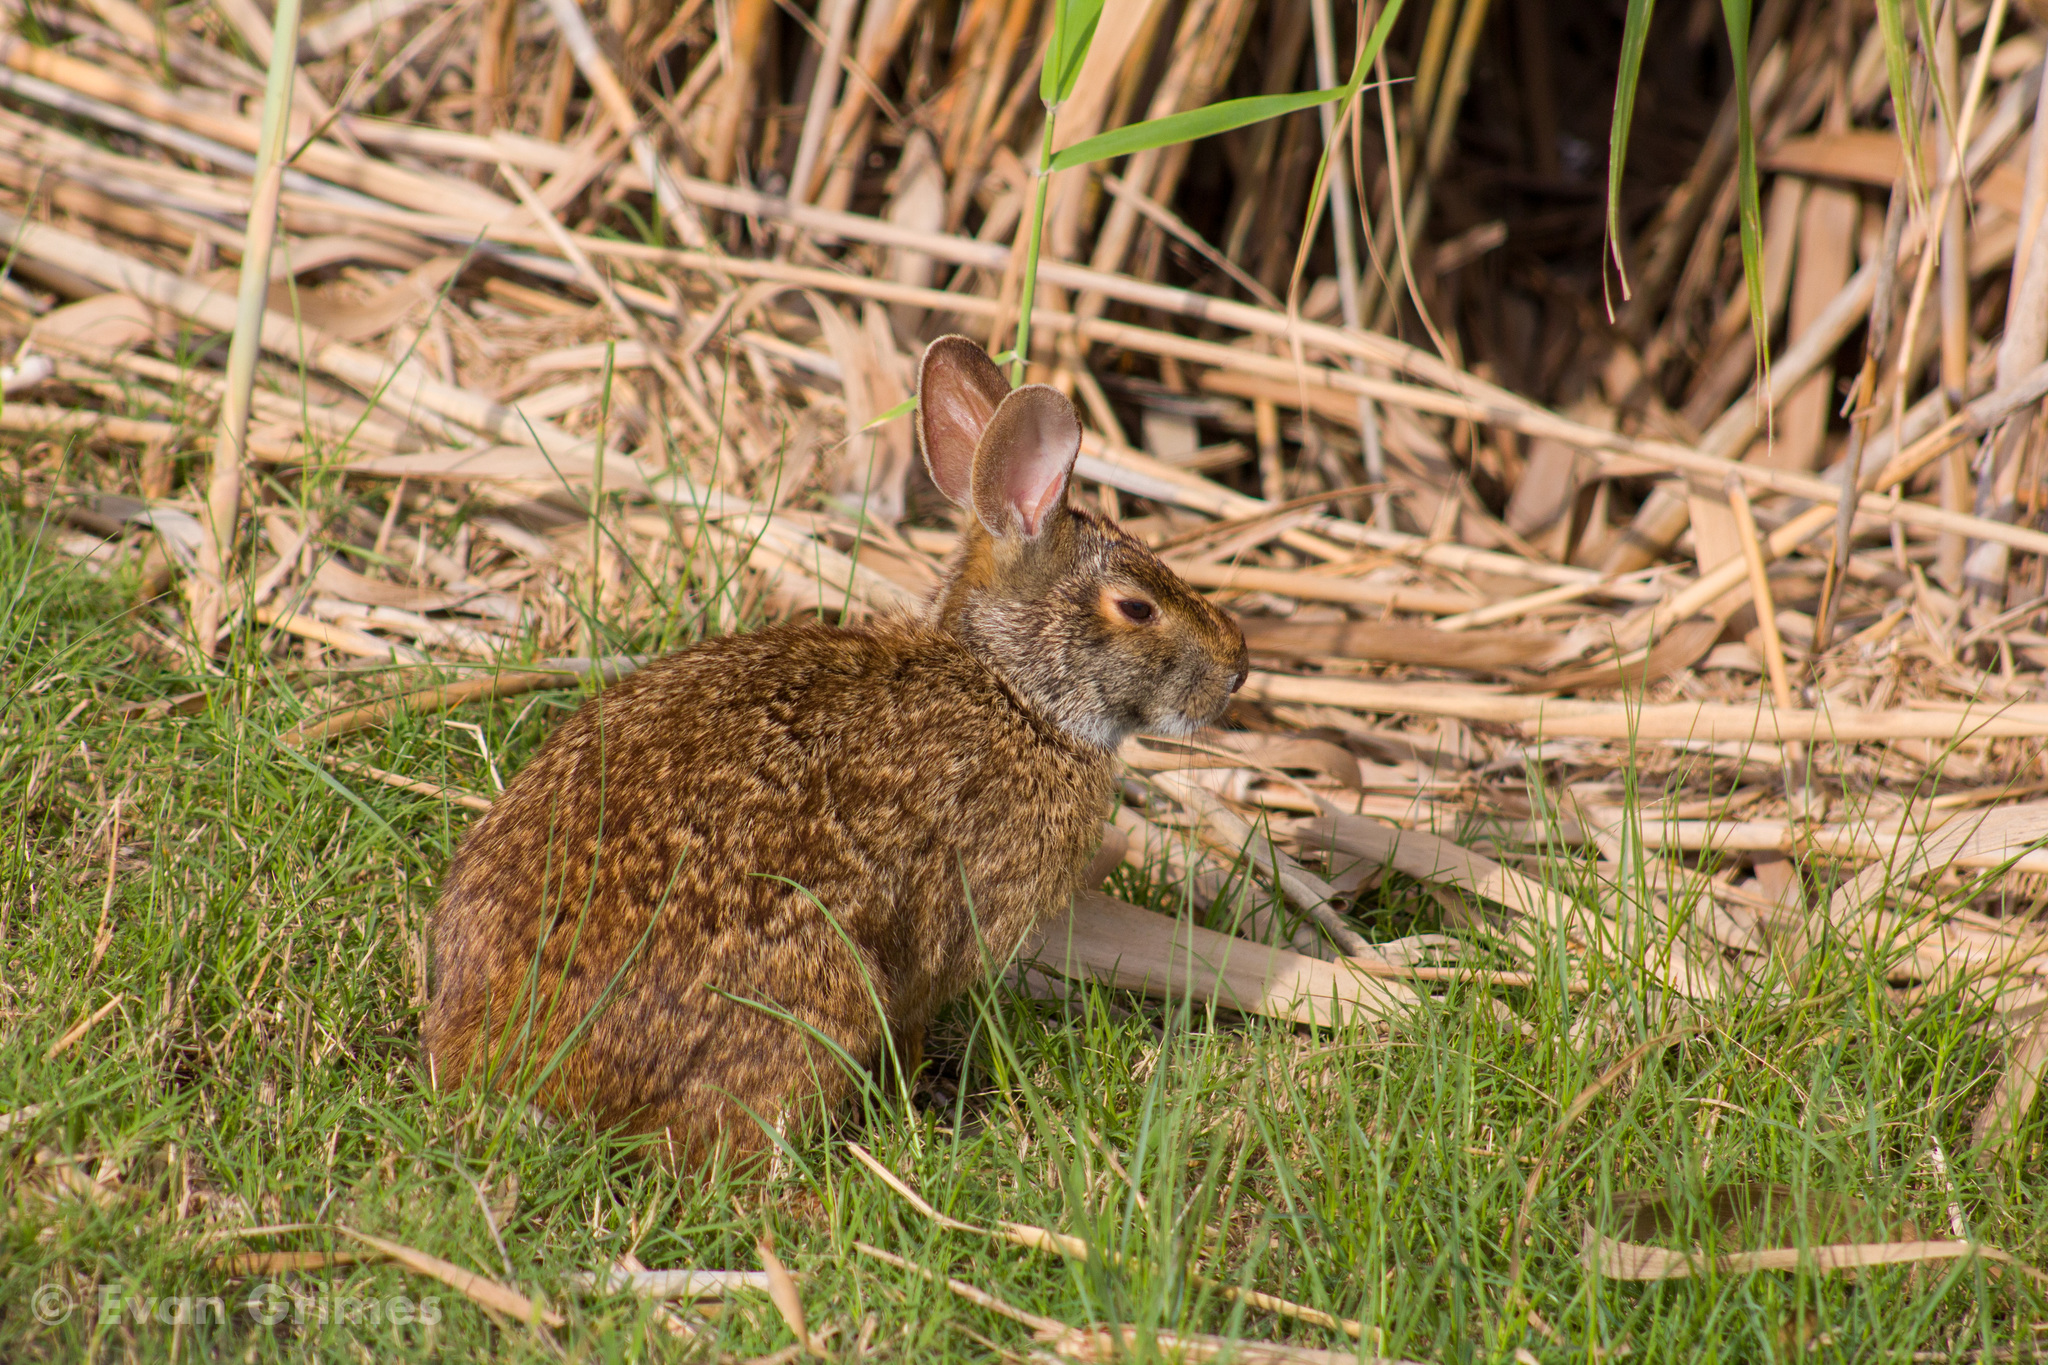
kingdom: Animalia
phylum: Chordata
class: Mammalia
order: Lagomorpha
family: Leporidae
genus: Sylvilagus
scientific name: Sylvilagus aquaticus
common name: Swamp rabbit
